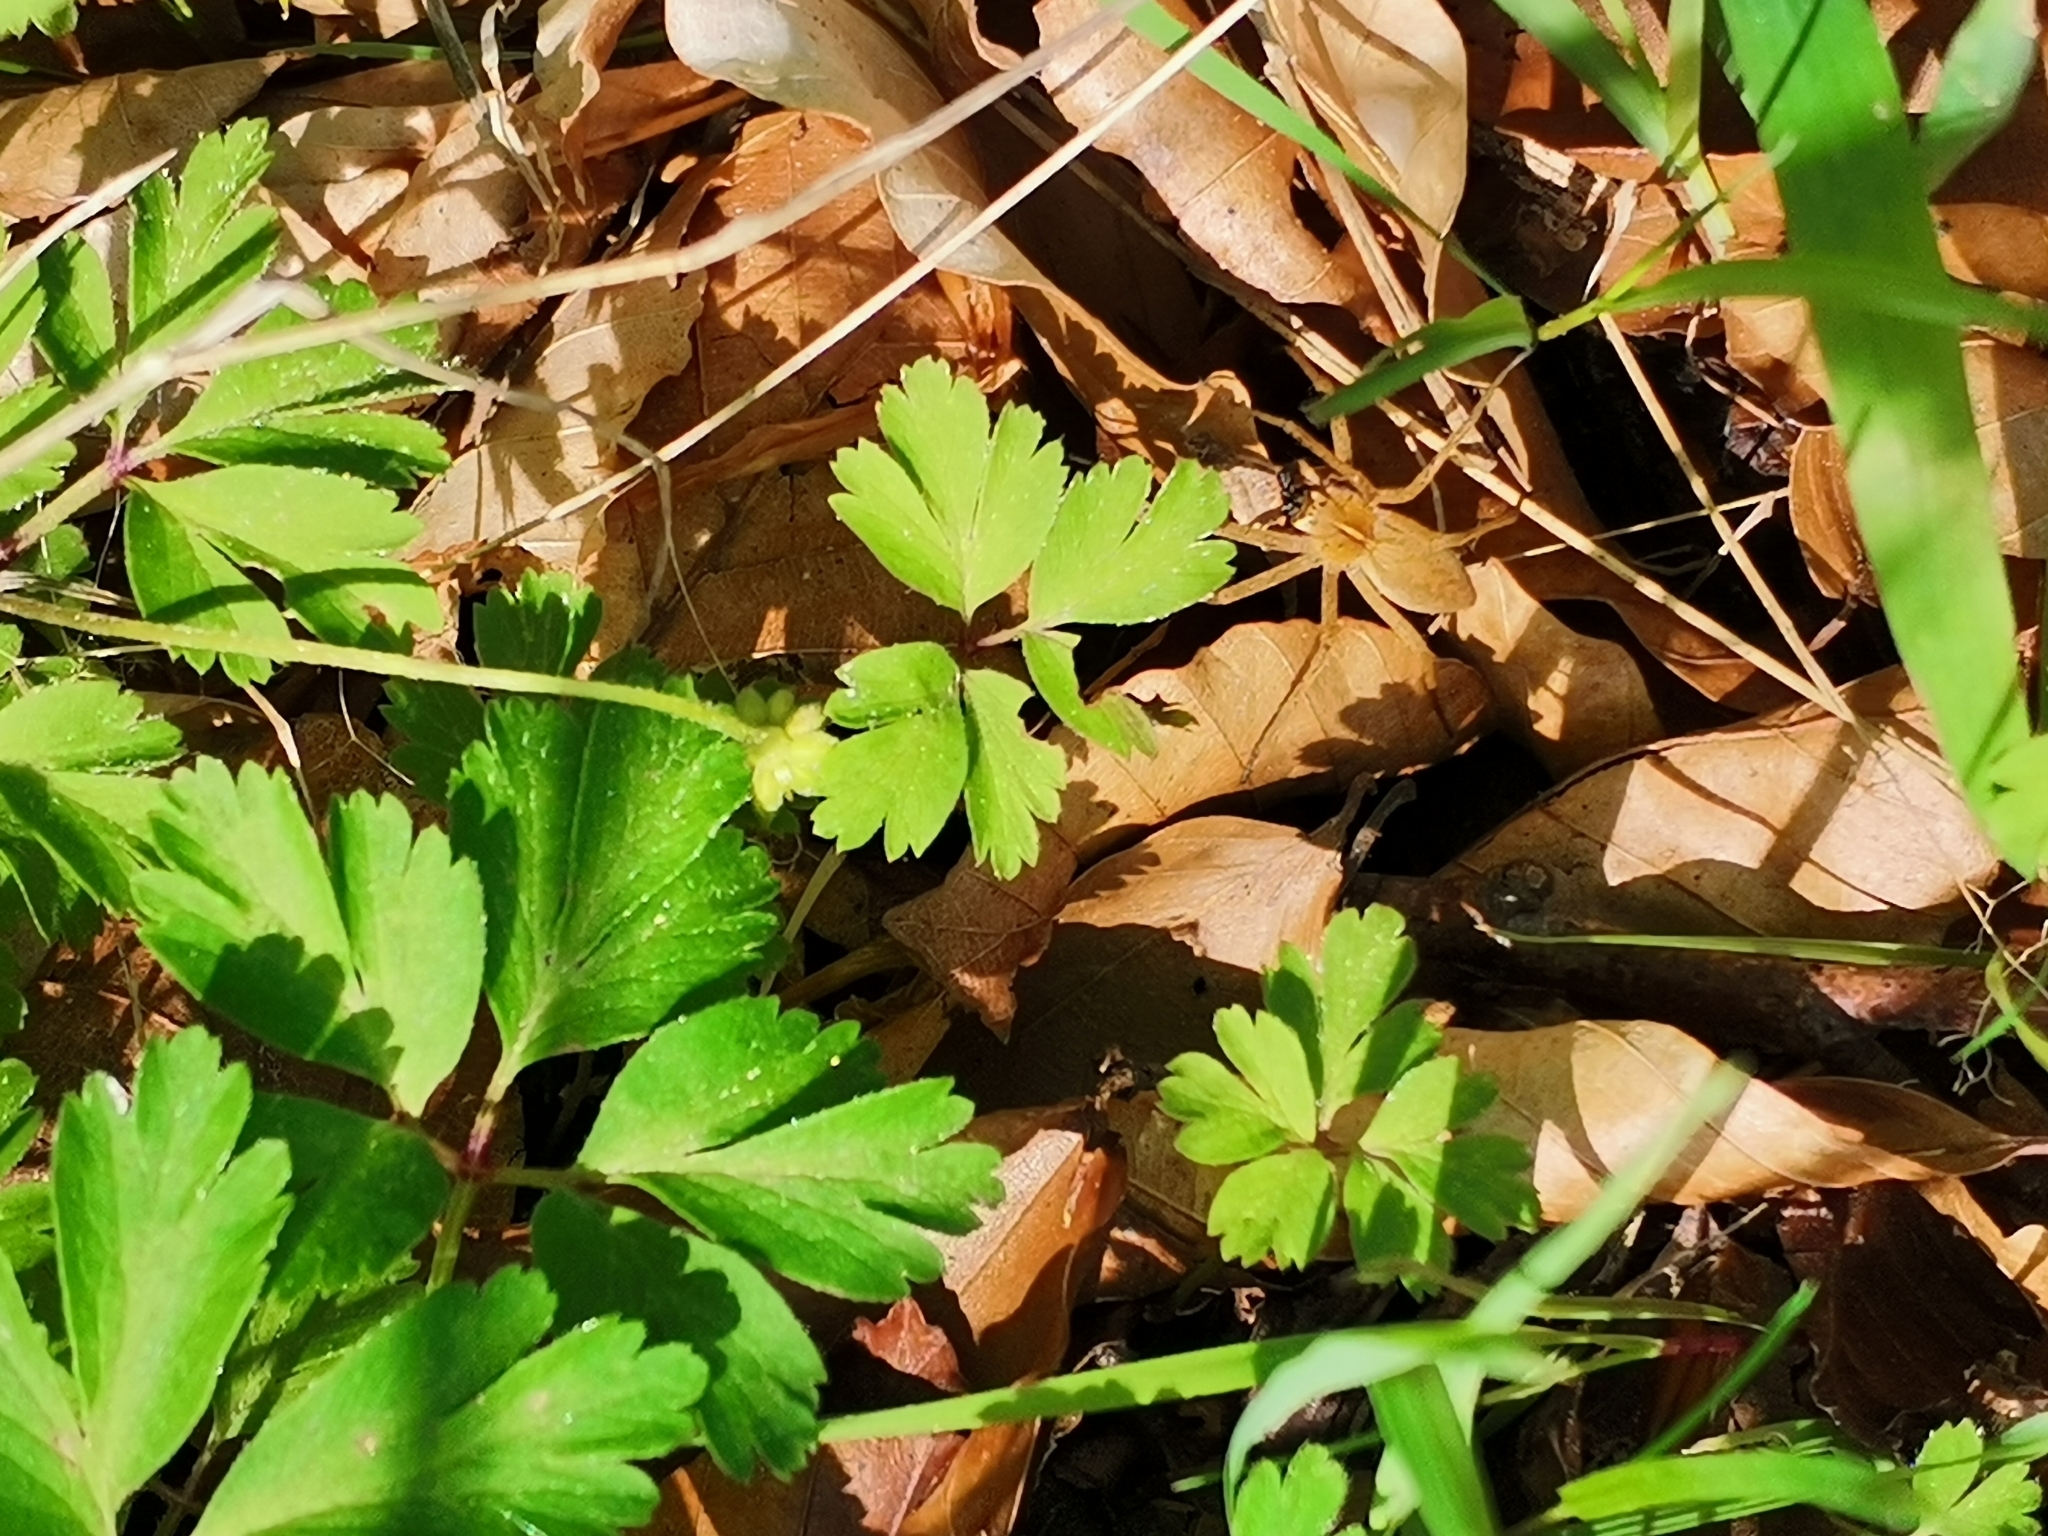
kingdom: Animalia
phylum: Arthropoda
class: Arachnida
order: Araneae
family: Pisauridae
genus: Pisaura
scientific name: Pisaura mirabilis
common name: Tent spider
